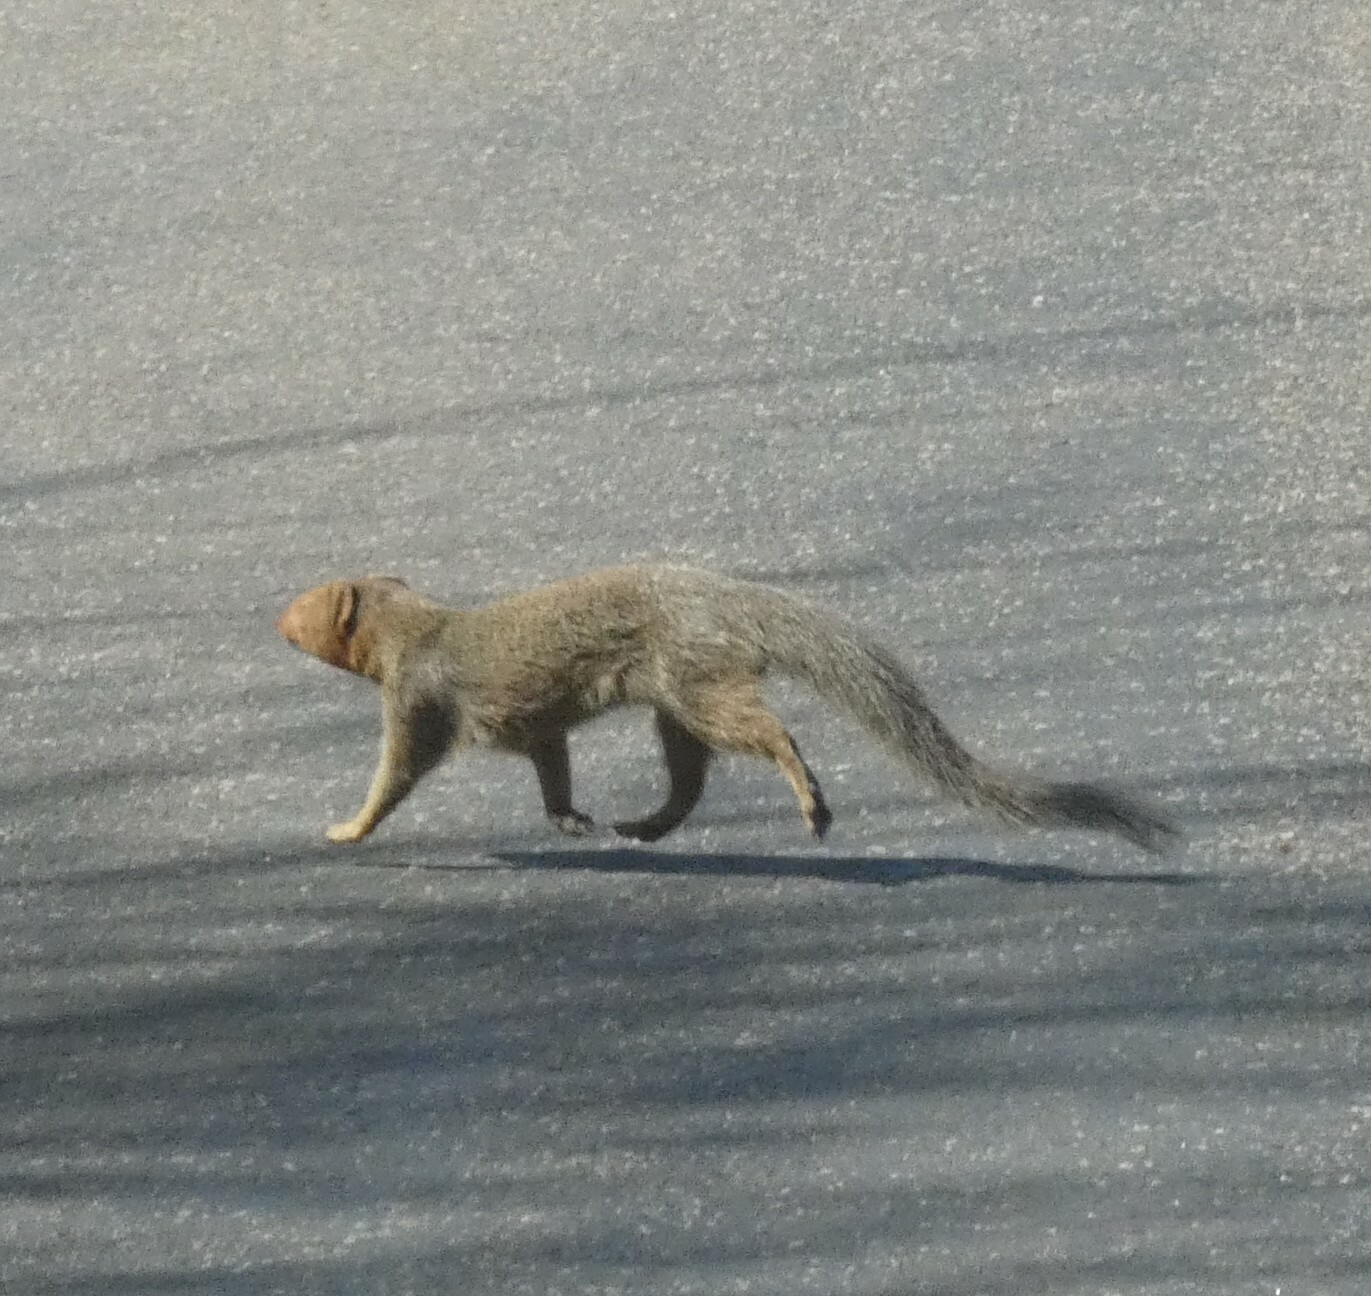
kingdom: Animalia
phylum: Chordata
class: Mammalia
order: Carnivora
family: Herpestidae
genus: Galerella
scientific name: Galerella sanguinea
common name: Slender mongoose
